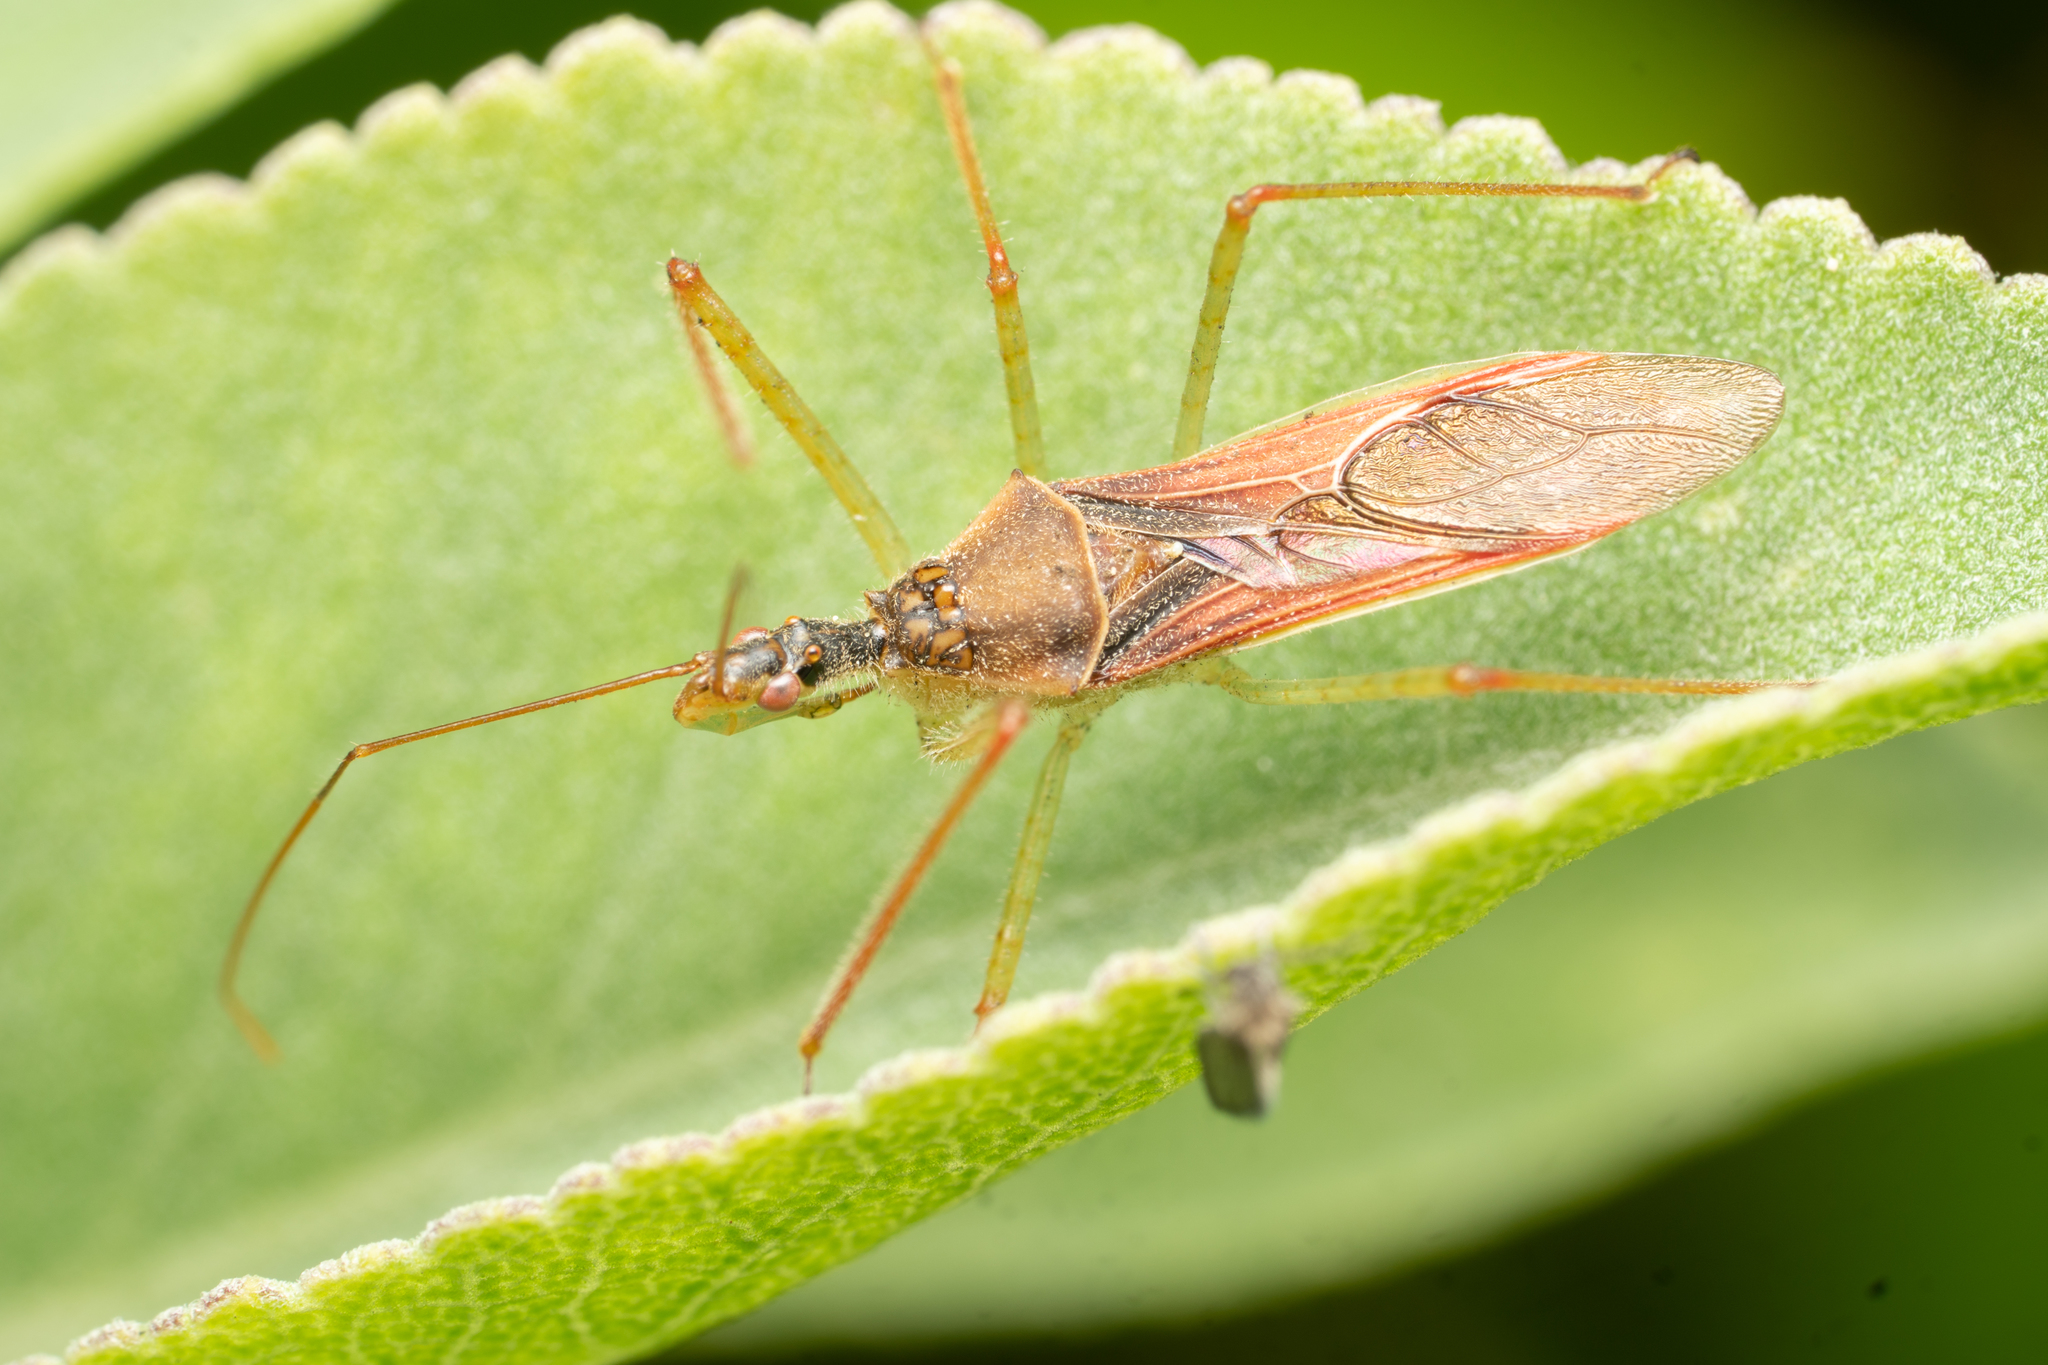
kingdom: Animalia
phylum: Arthropoda
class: Insecta
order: Hemiptera
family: Reduviidae
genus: Zelus
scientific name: Zelus renardii
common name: Assassin bug
